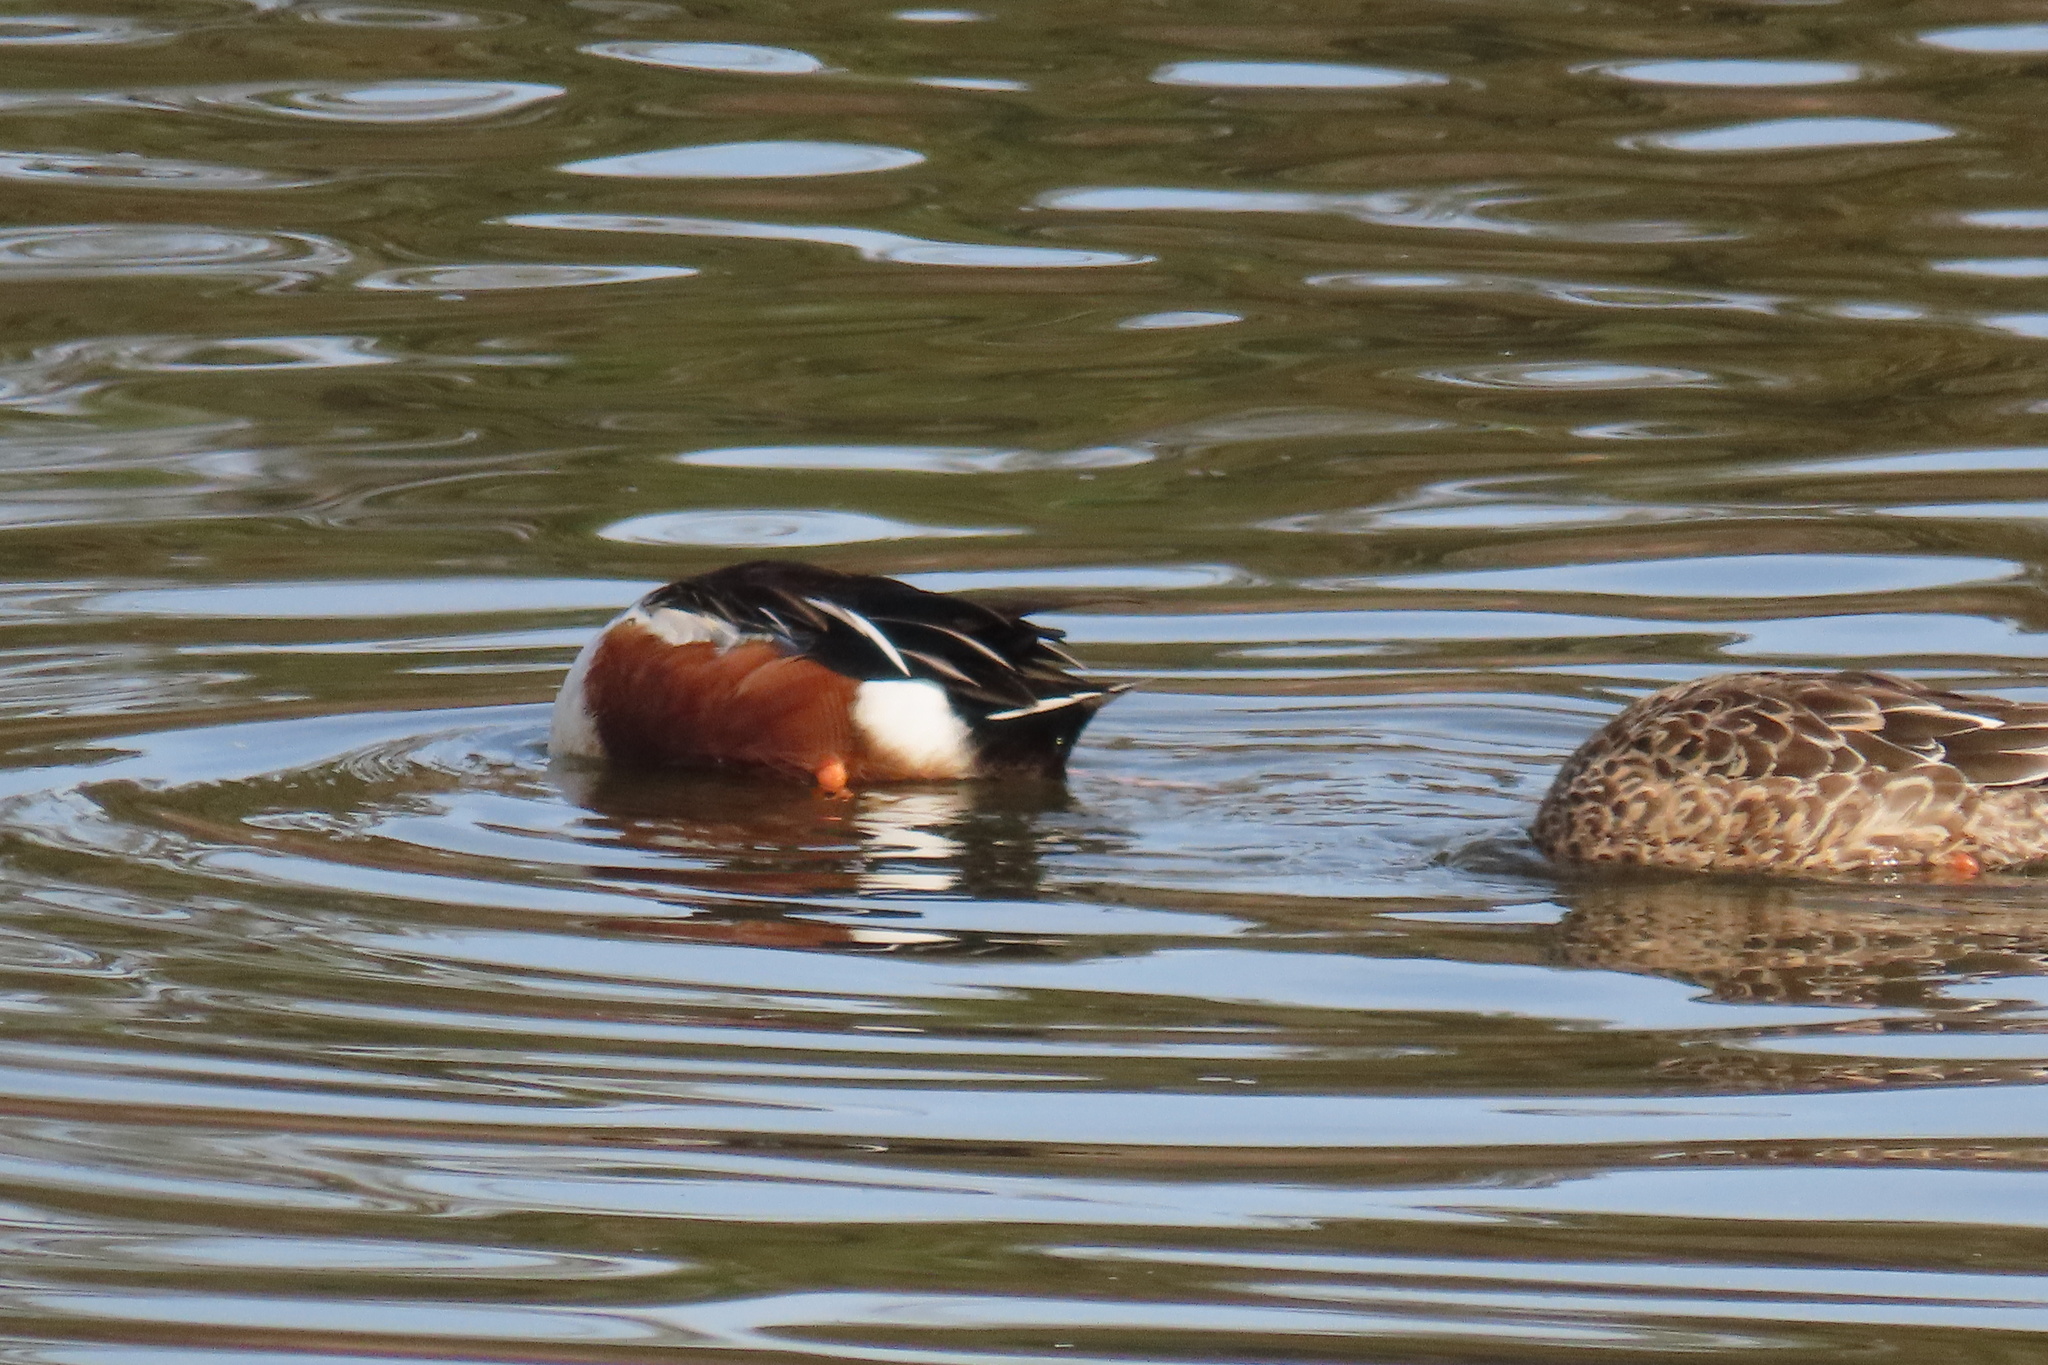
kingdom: Animalia
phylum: Chordata
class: Aves
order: Anseriformes
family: Anatidae
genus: Spatula
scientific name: Spatula clypeata
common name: Northern shoveler
